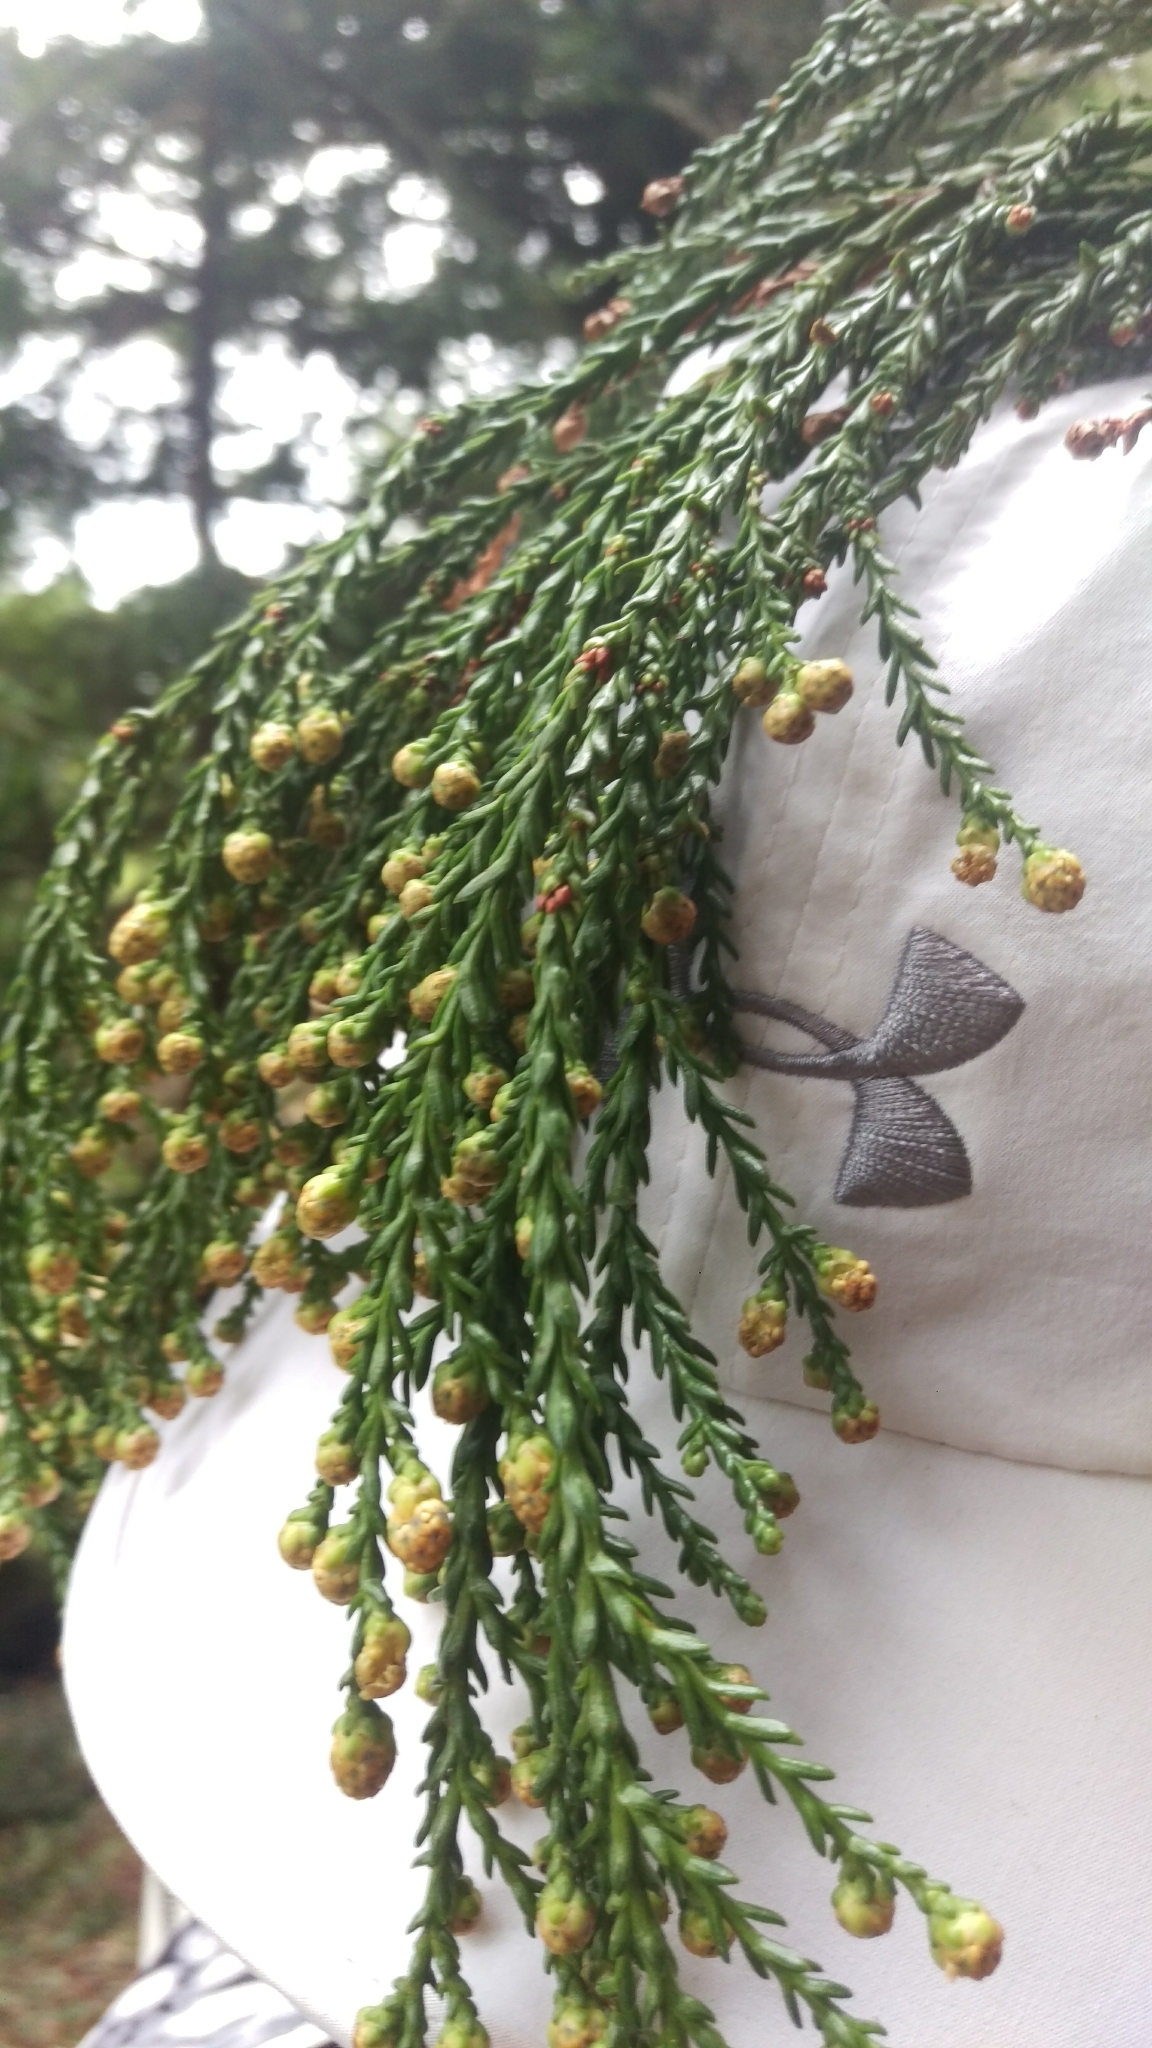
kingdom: Plantae
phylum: Tracheophyta
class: Pinopsida
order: Pinales
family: Cupressaceae
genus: Sequoia
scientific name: Sequoia sempervirens
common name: Coast redwood
